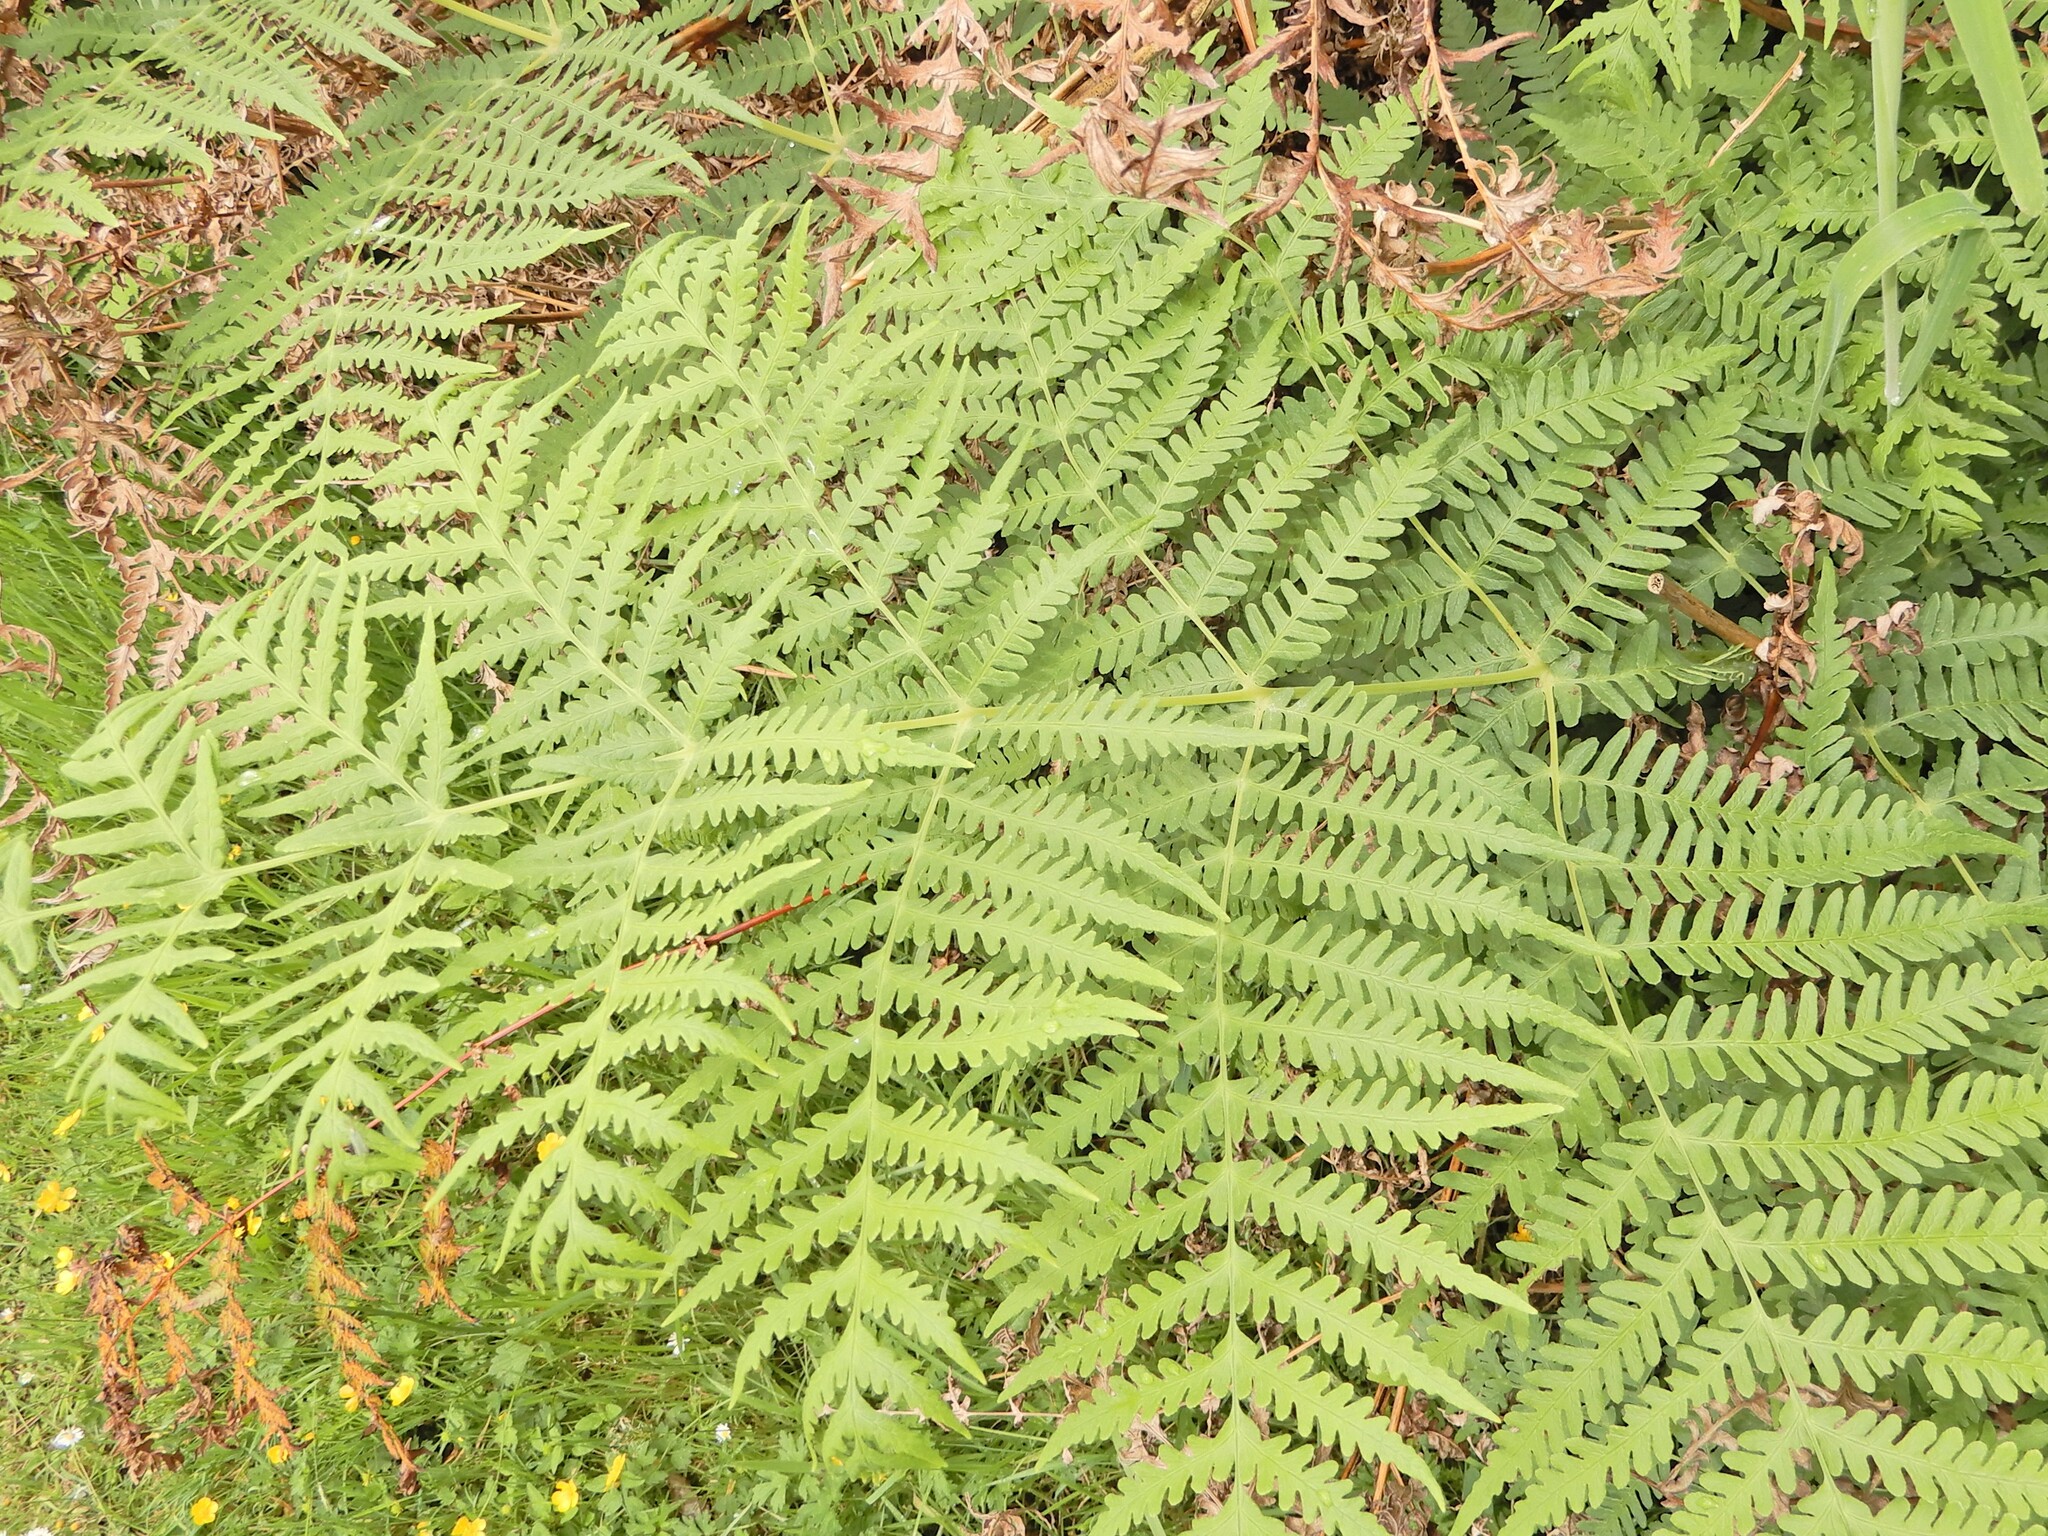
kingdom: Plantae
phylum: Tracheophyta
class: Polypodiopsida
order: Polypodiales
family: Dennstaedtiaceae
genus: Histiopteris
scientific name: Histiopteris incisa
